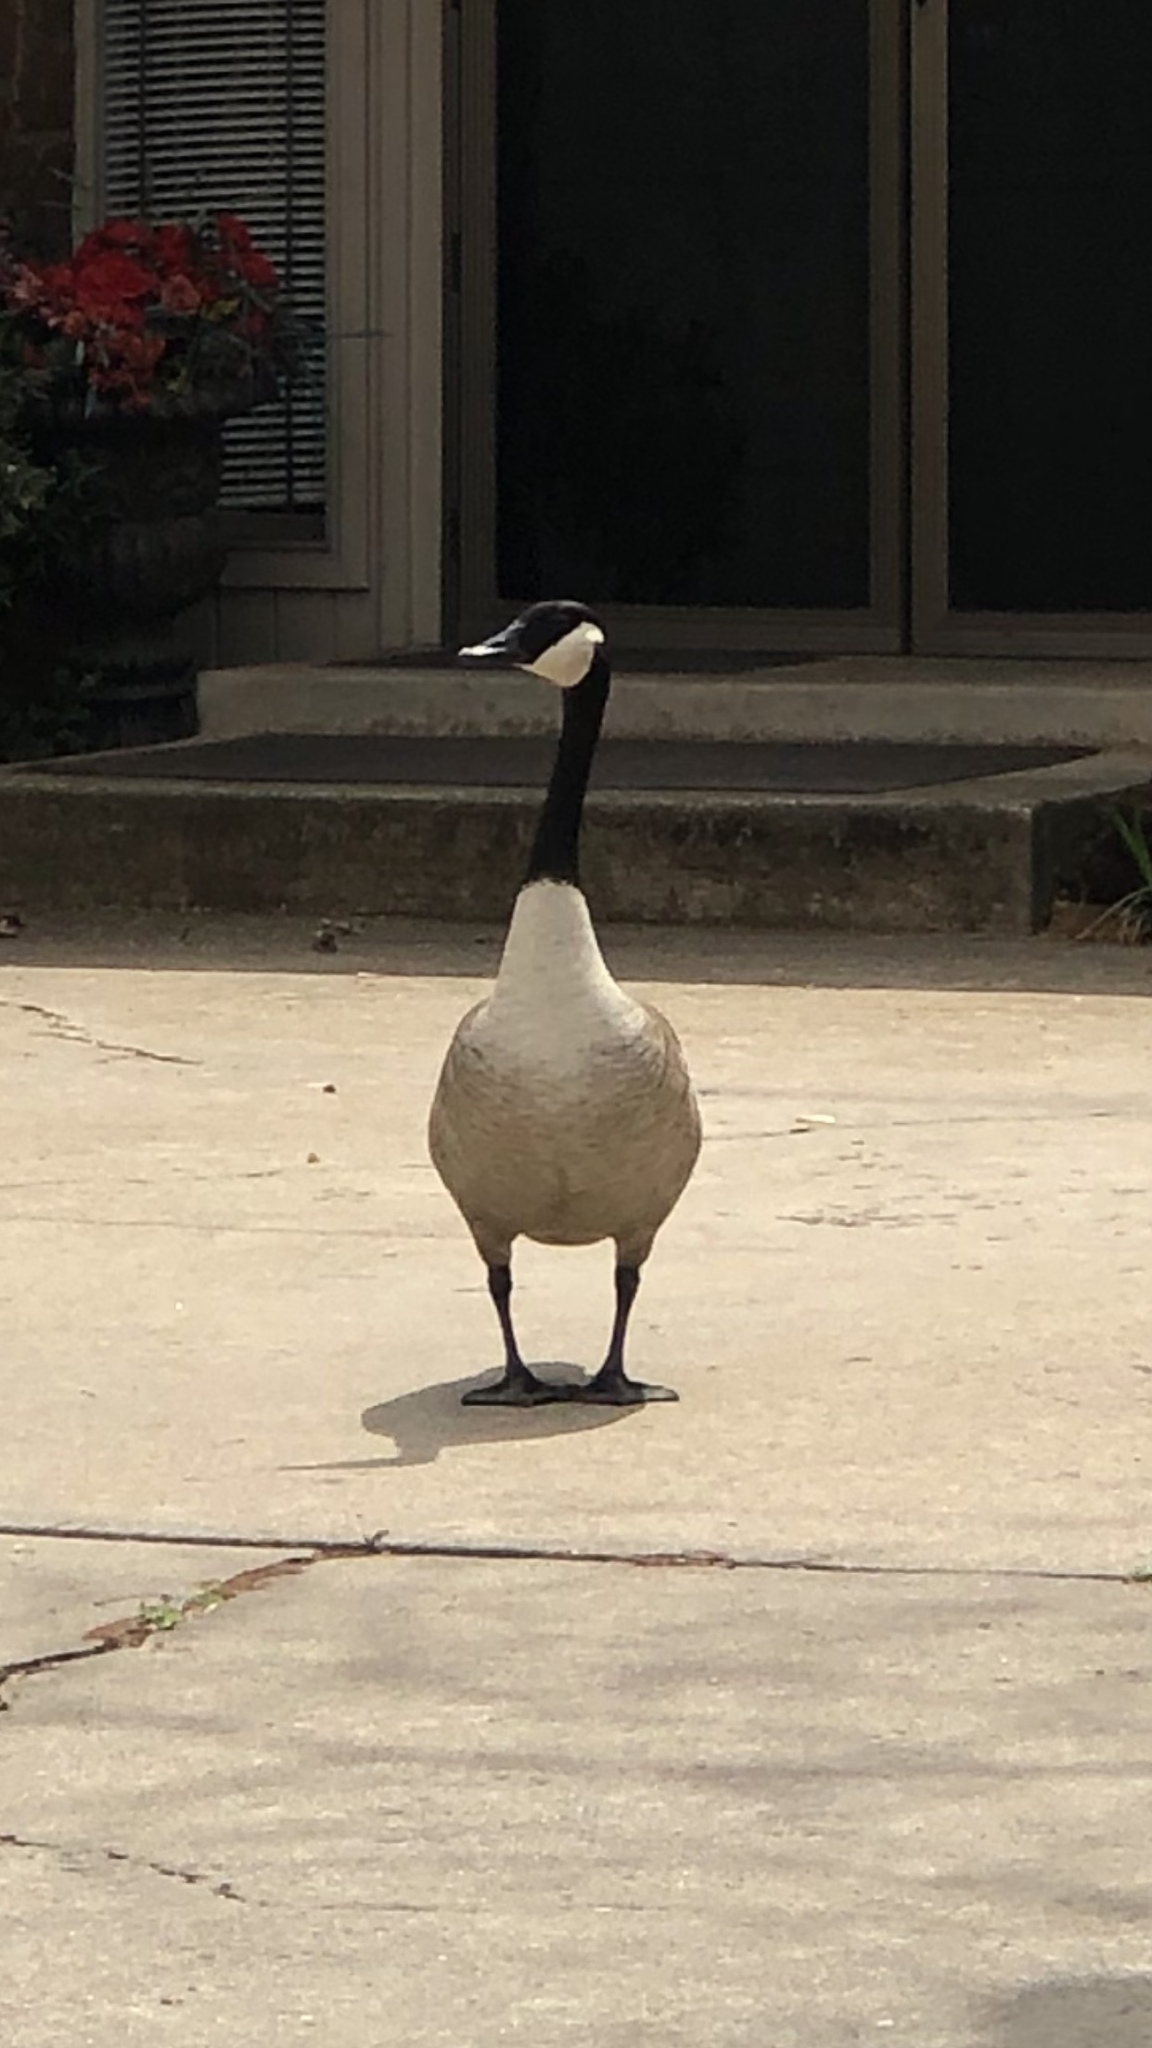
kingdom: Animalia
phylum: Chordata
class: Aves
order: Anseriformes
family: Anatidae
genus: Branta
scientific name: Branta canadensis
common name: Canada goose
